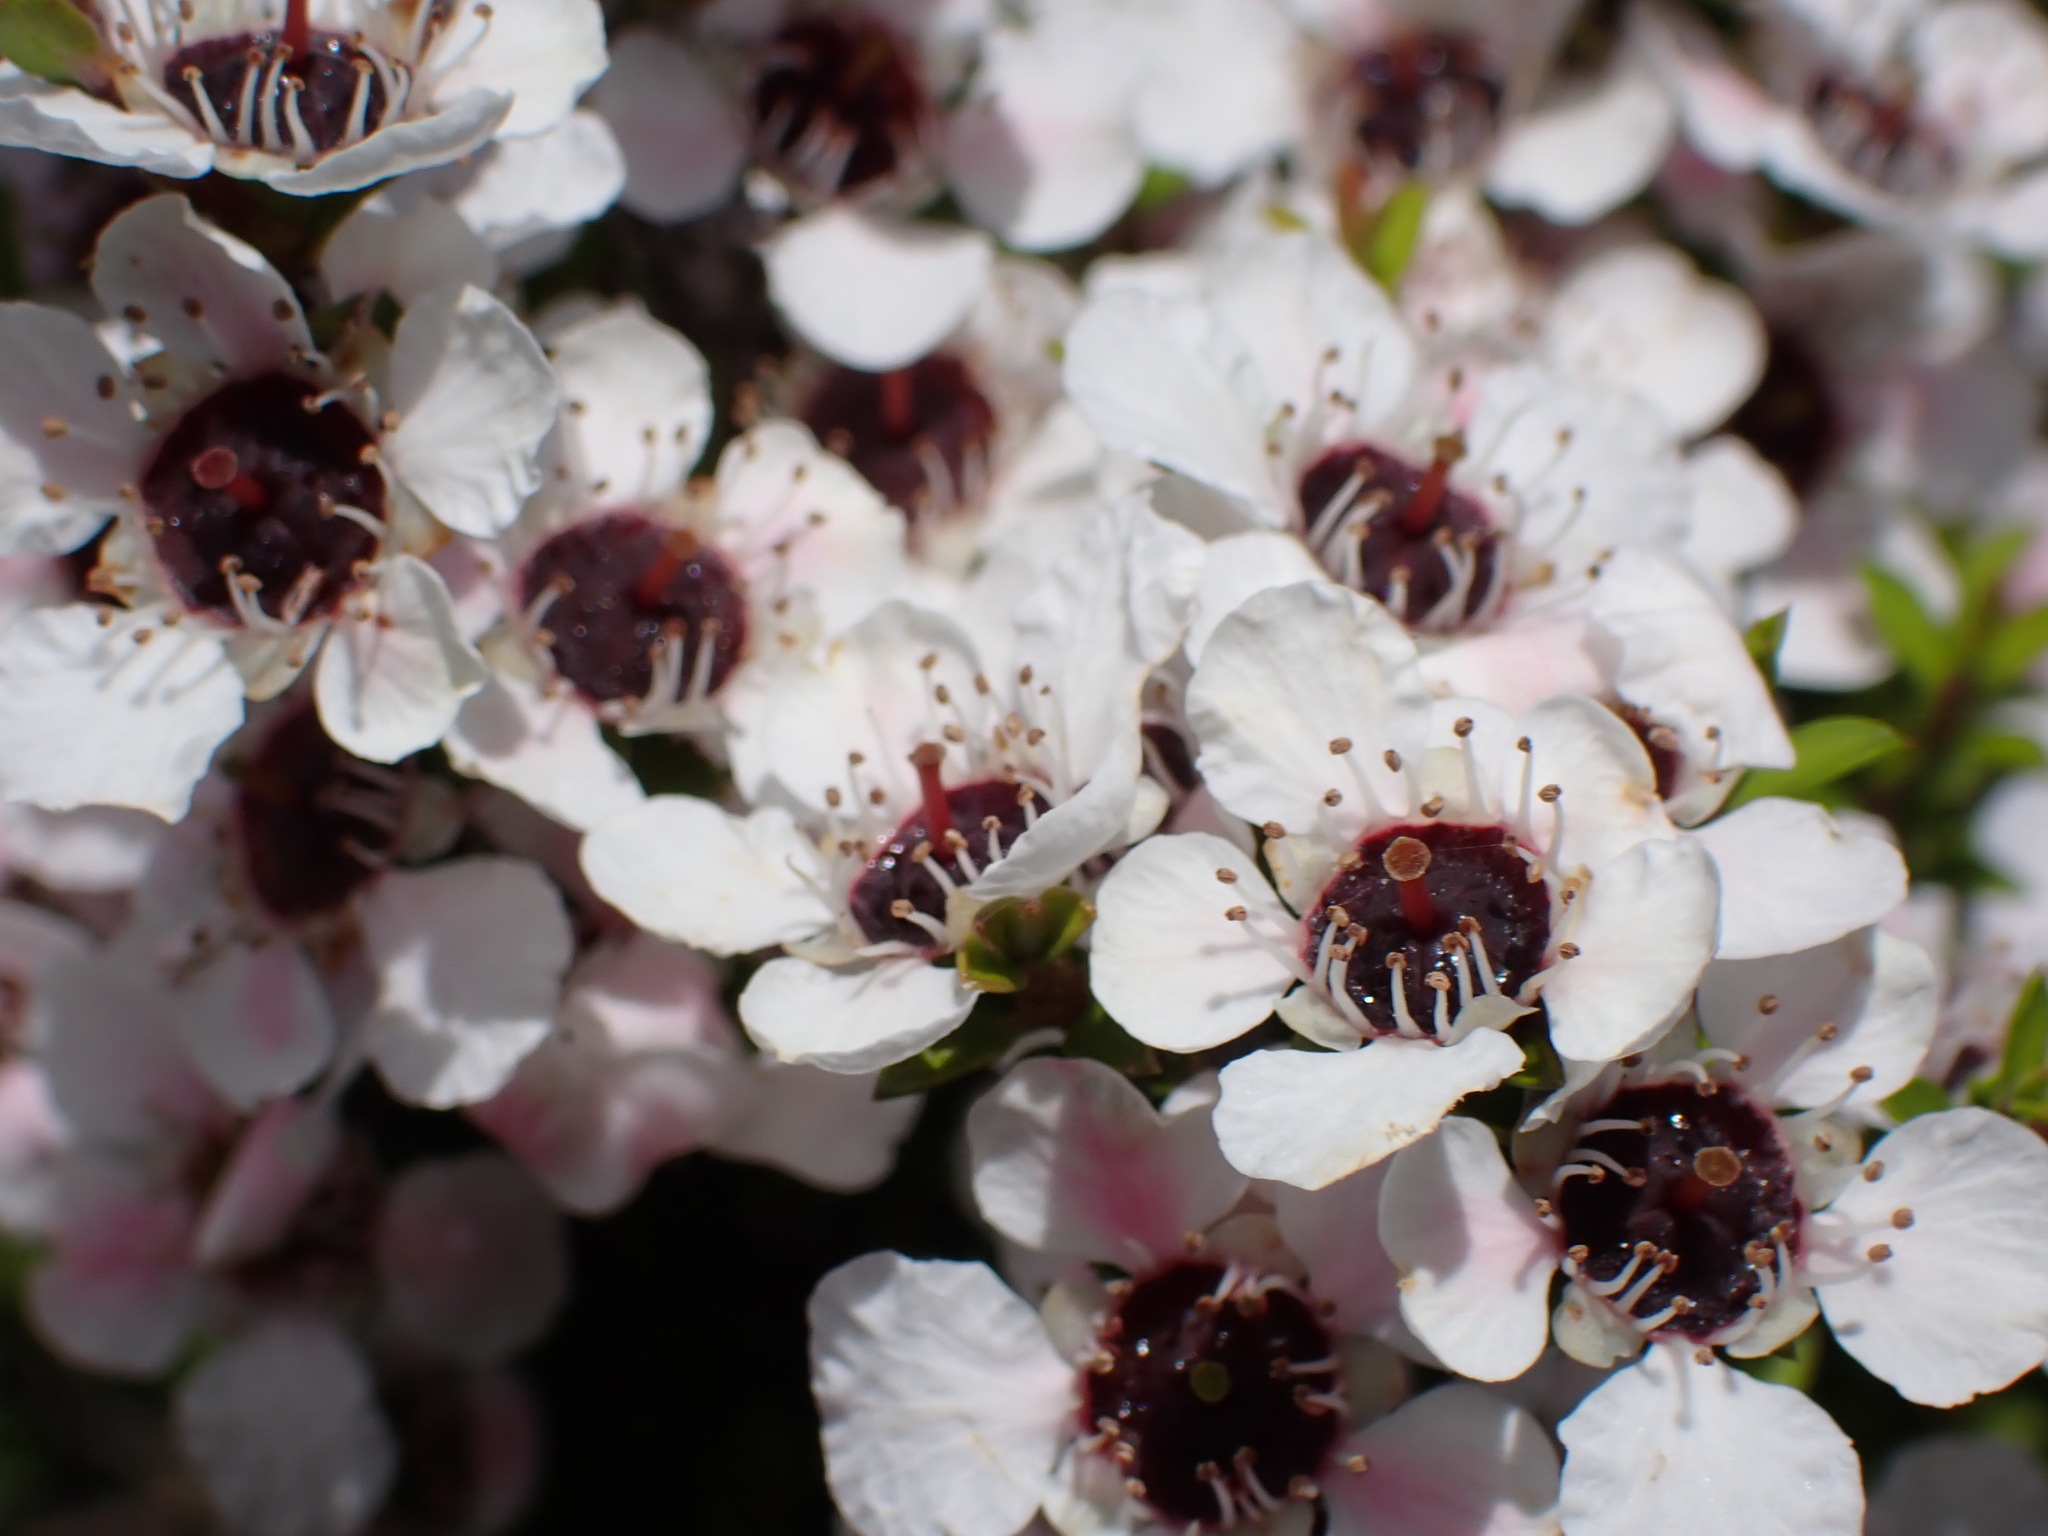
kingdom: Plantae
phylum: Tracheophyta
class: Magnoliopsida
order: Myrtales
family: Myrtaceae
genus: Leptospermum
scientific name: Leptospermum scoparium
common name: Broom tea-tree
